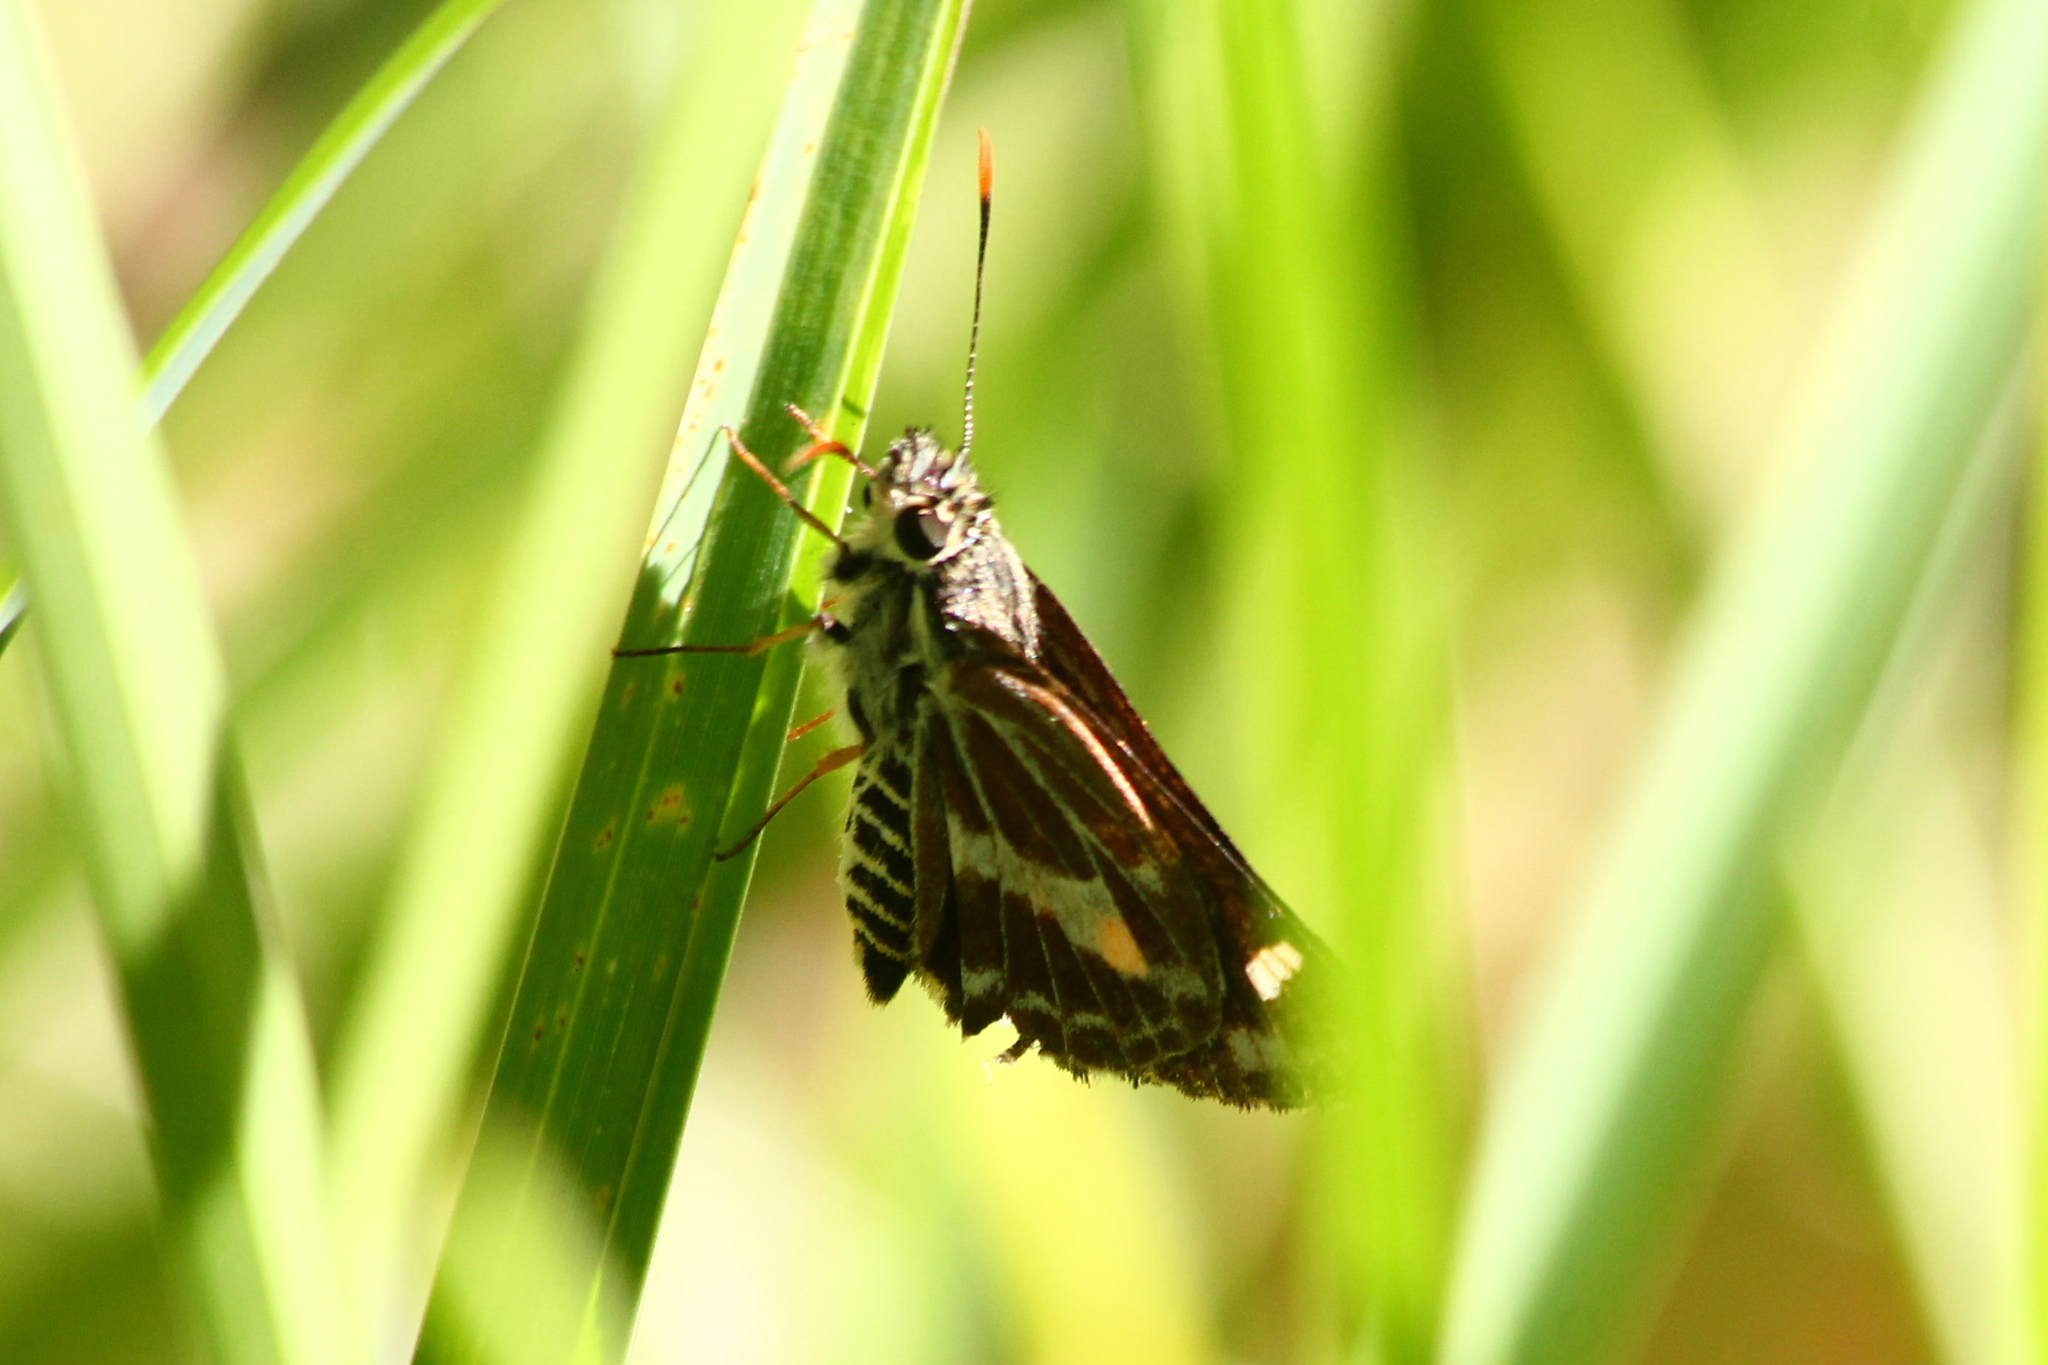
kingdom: Animalia
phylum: Arthropoda
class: Insecta
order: Lepidoptera
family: Hesperiidae
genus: Hesperilla
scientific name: Hesperilla picta
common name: Painted sedge-skipper
